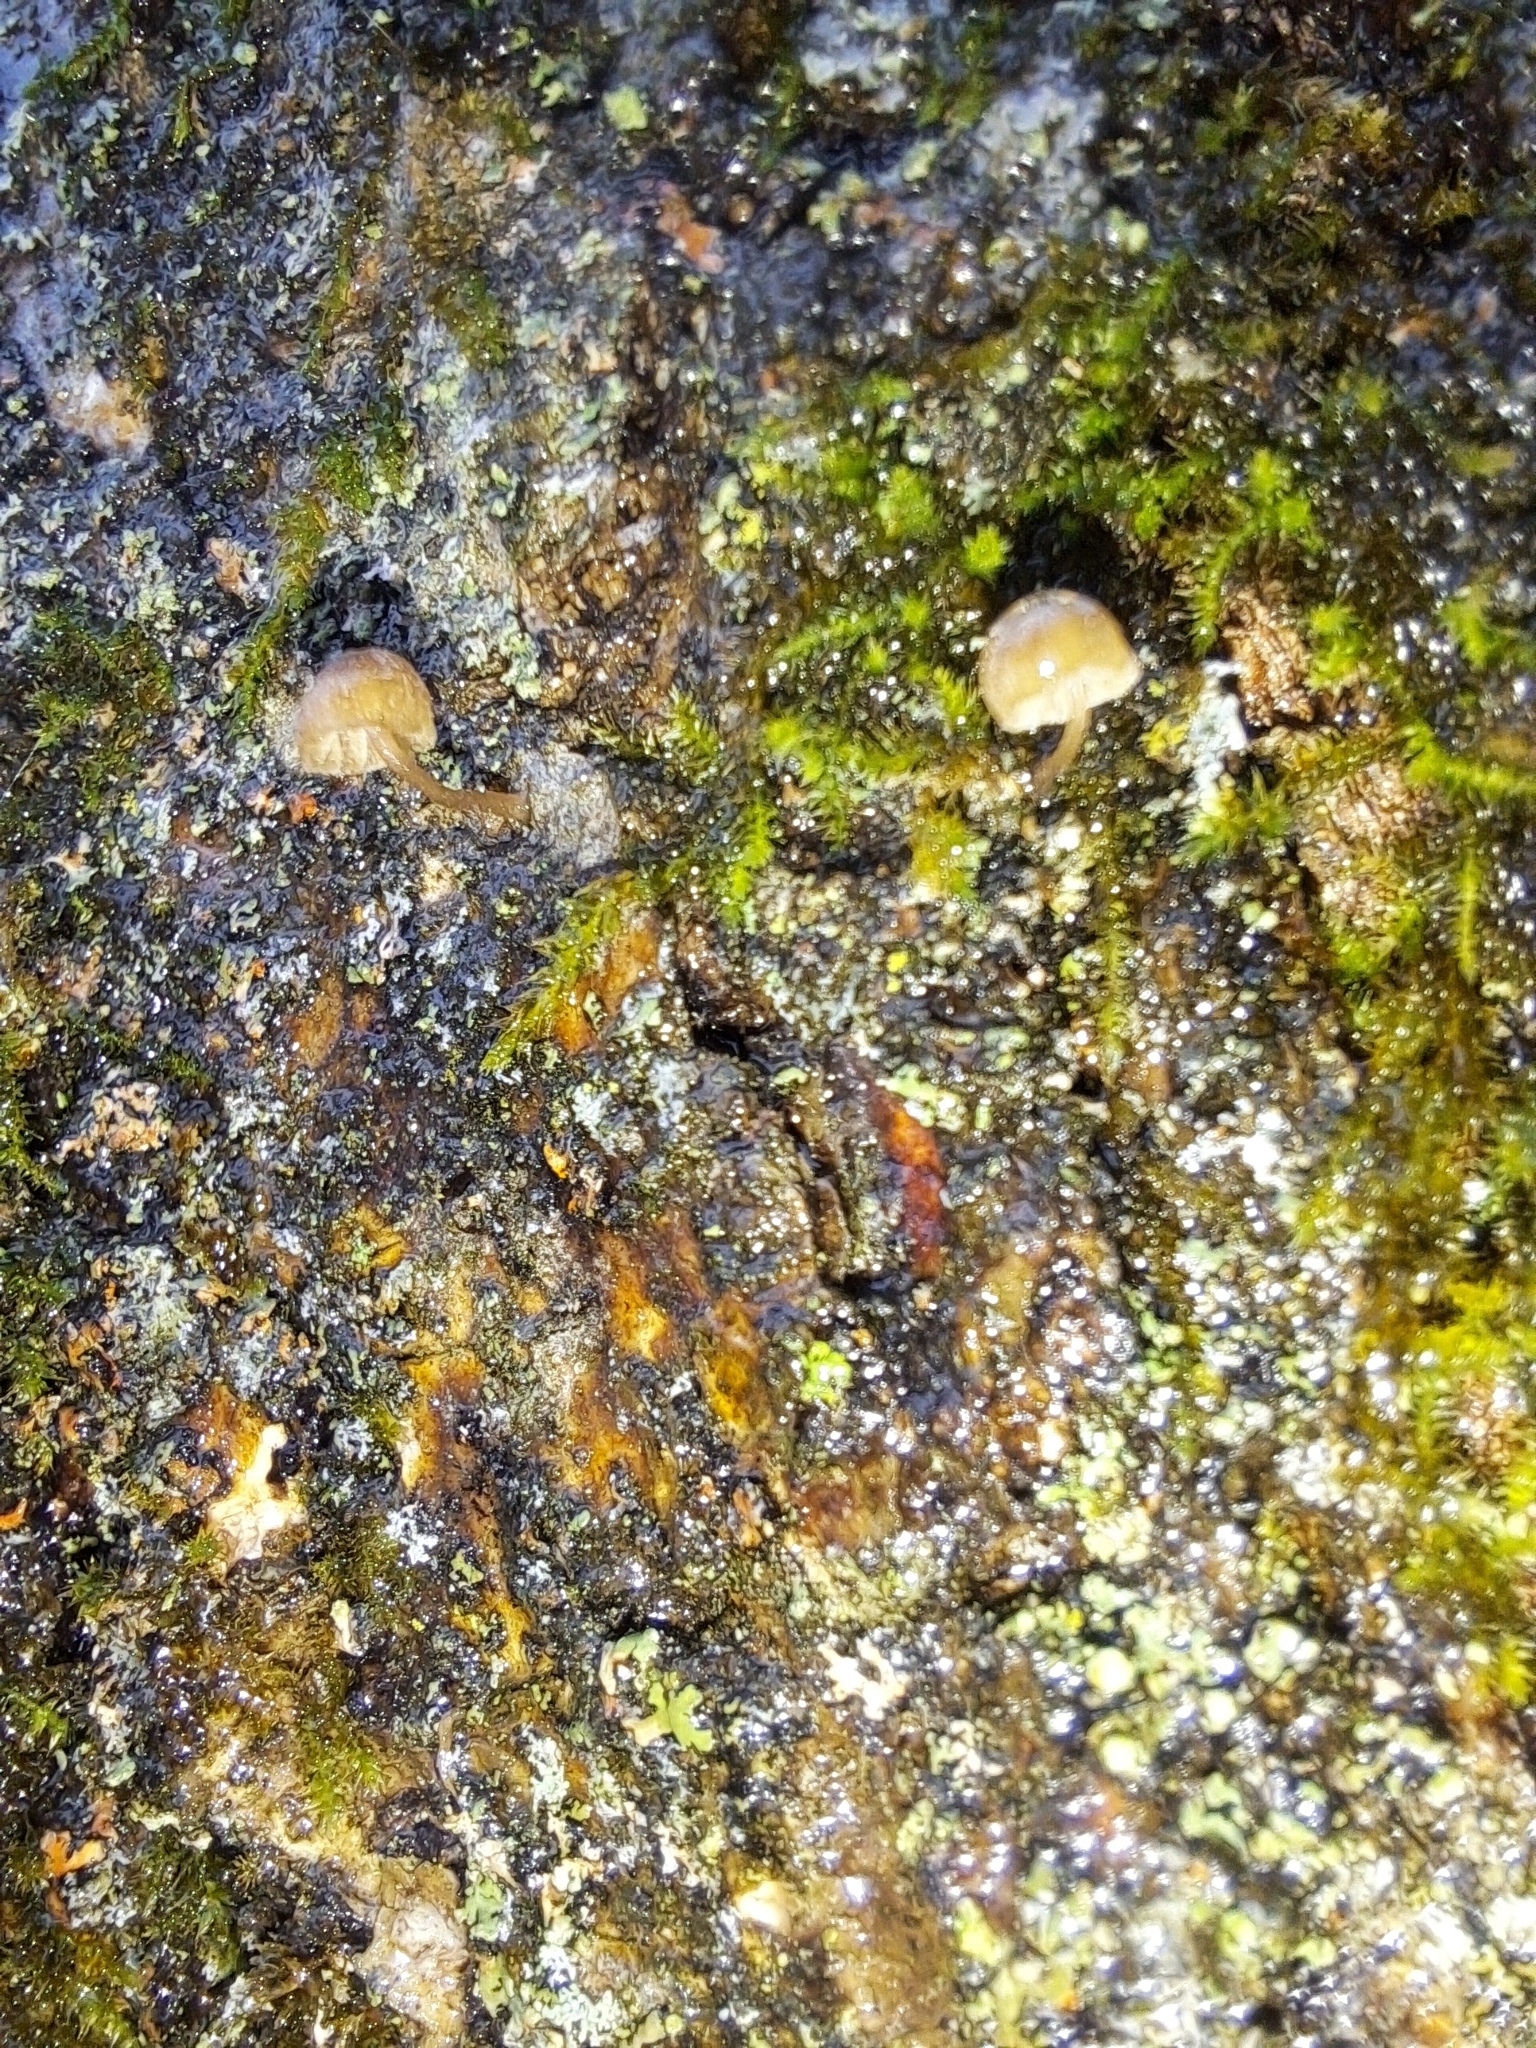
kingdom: Fungi
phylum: Basidiomycota
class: Agaricomycetes
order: Agaricales
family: Mycenaceae
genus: Mycena
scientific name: Mycena corticola
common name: Bark mycena
